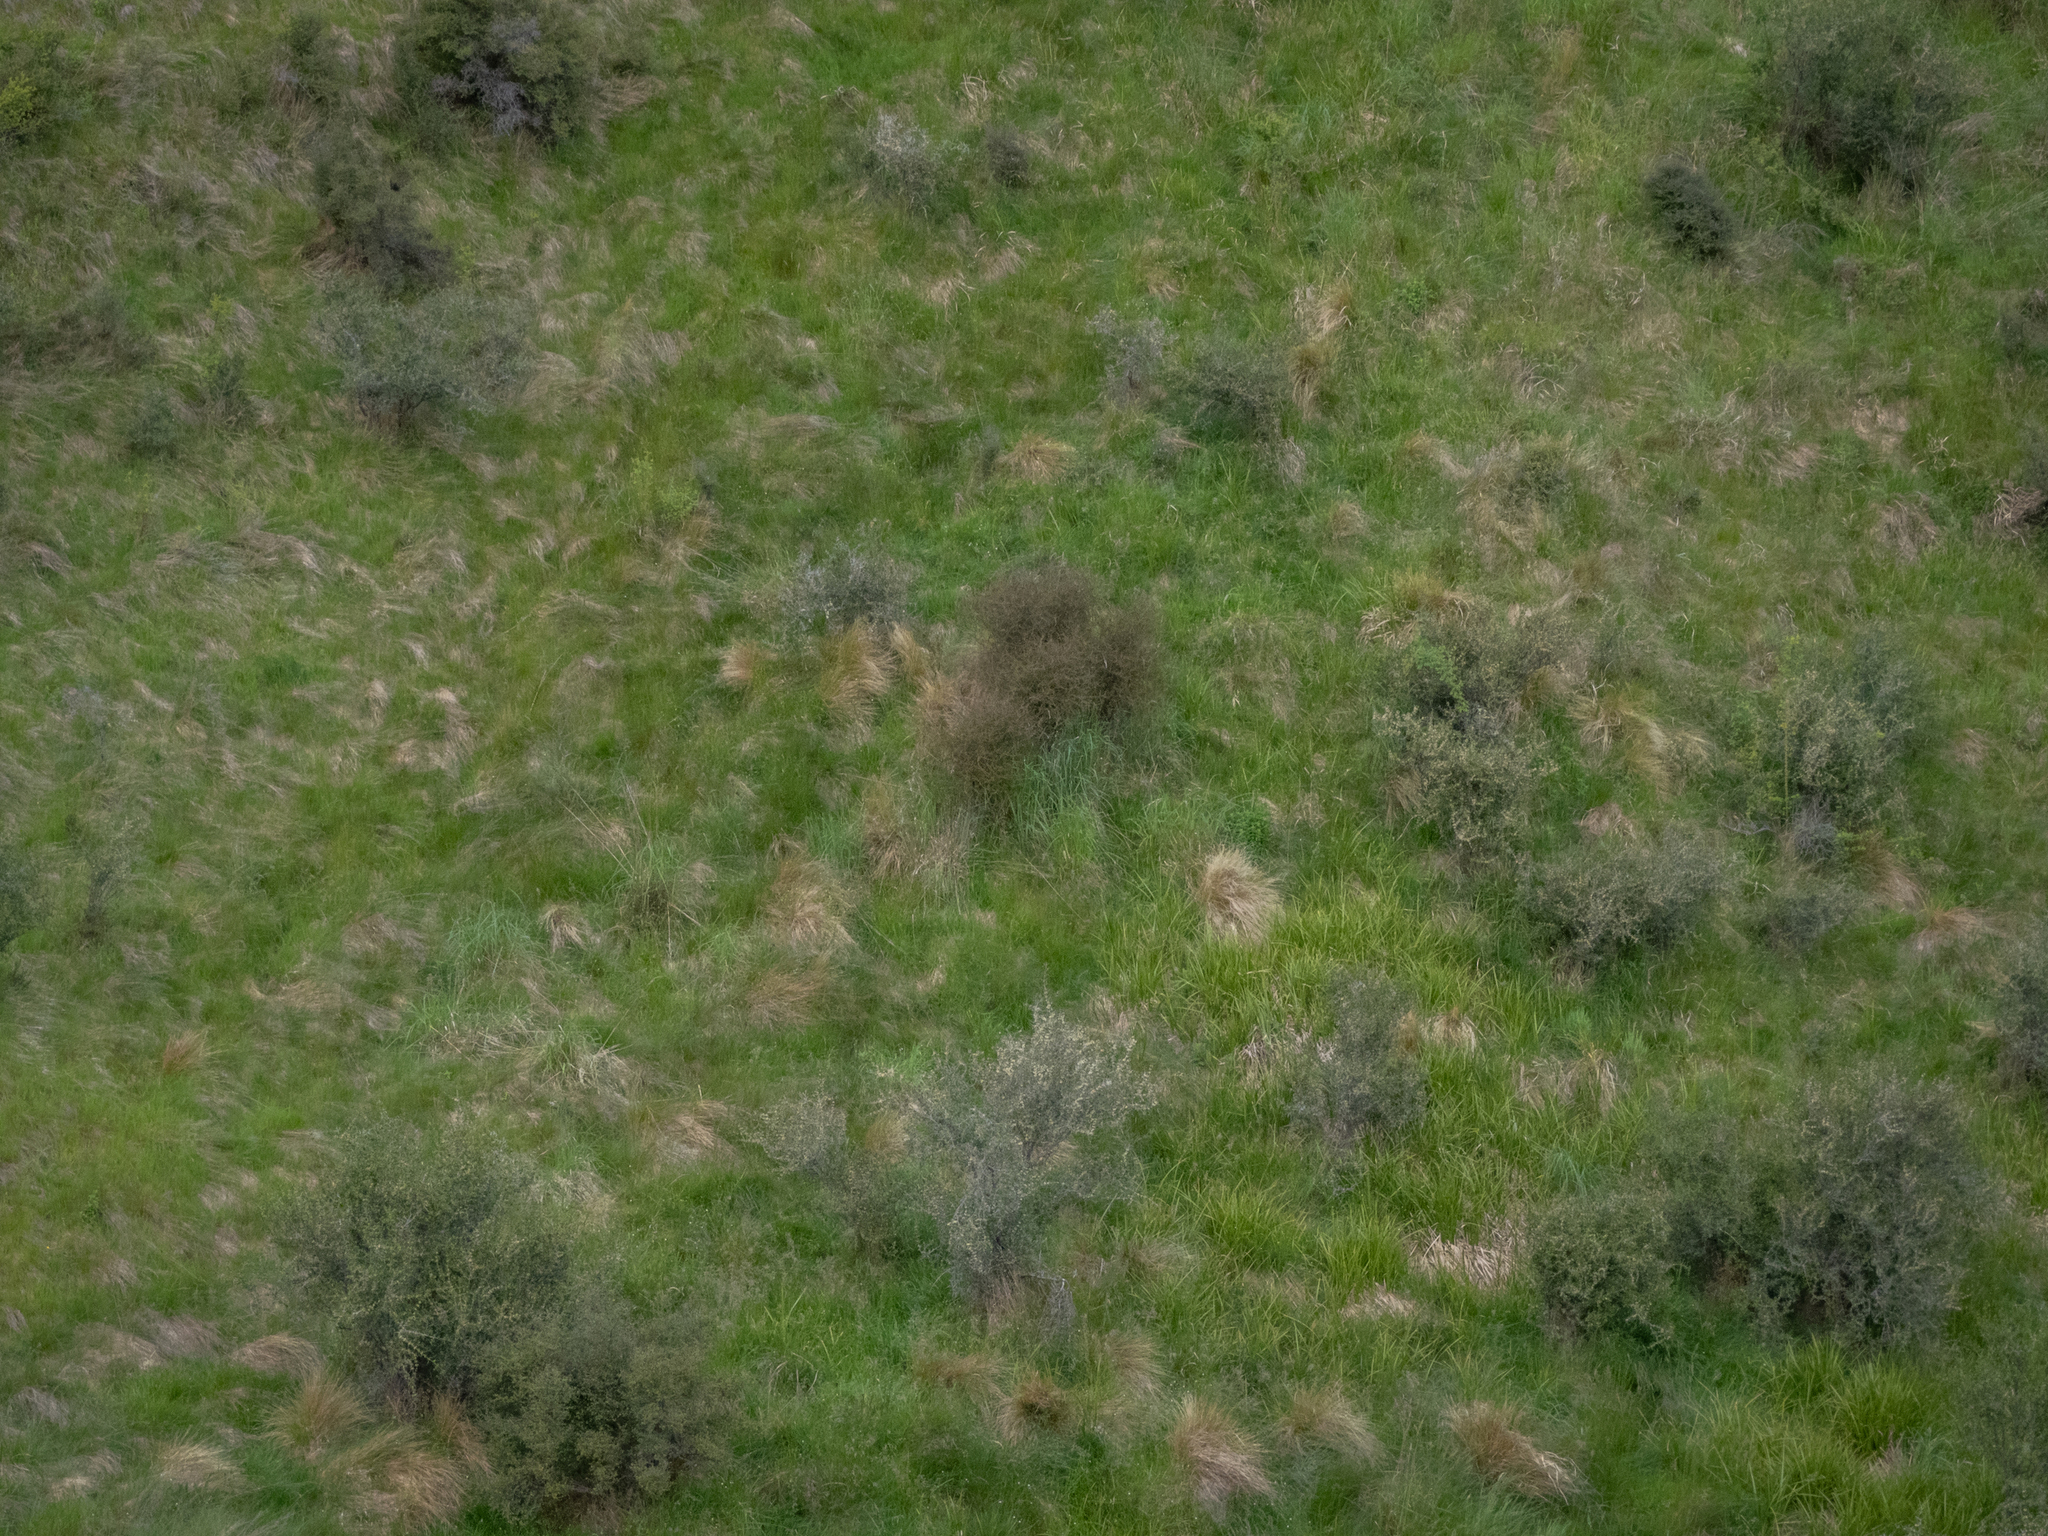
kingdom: Plantae
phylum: Tracheophyta
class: Magnoliopsida
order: Gentianales
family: Rubiaceae
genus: Coprosma
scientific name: Coprosma intertexta
